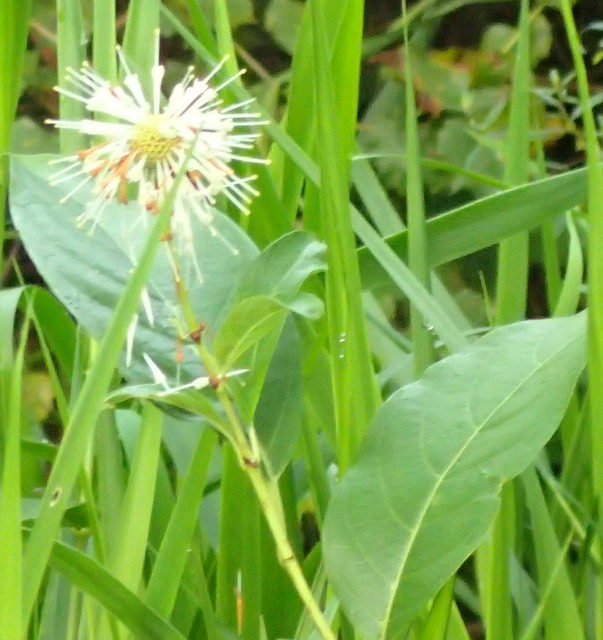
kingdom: Plantae
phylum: Tracheophyta
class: Magnoliopsida
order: Gentianales
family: Rubiaceae
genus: Cephalanthus
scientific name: Cephalanthus occidentalis
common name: Button-willow
